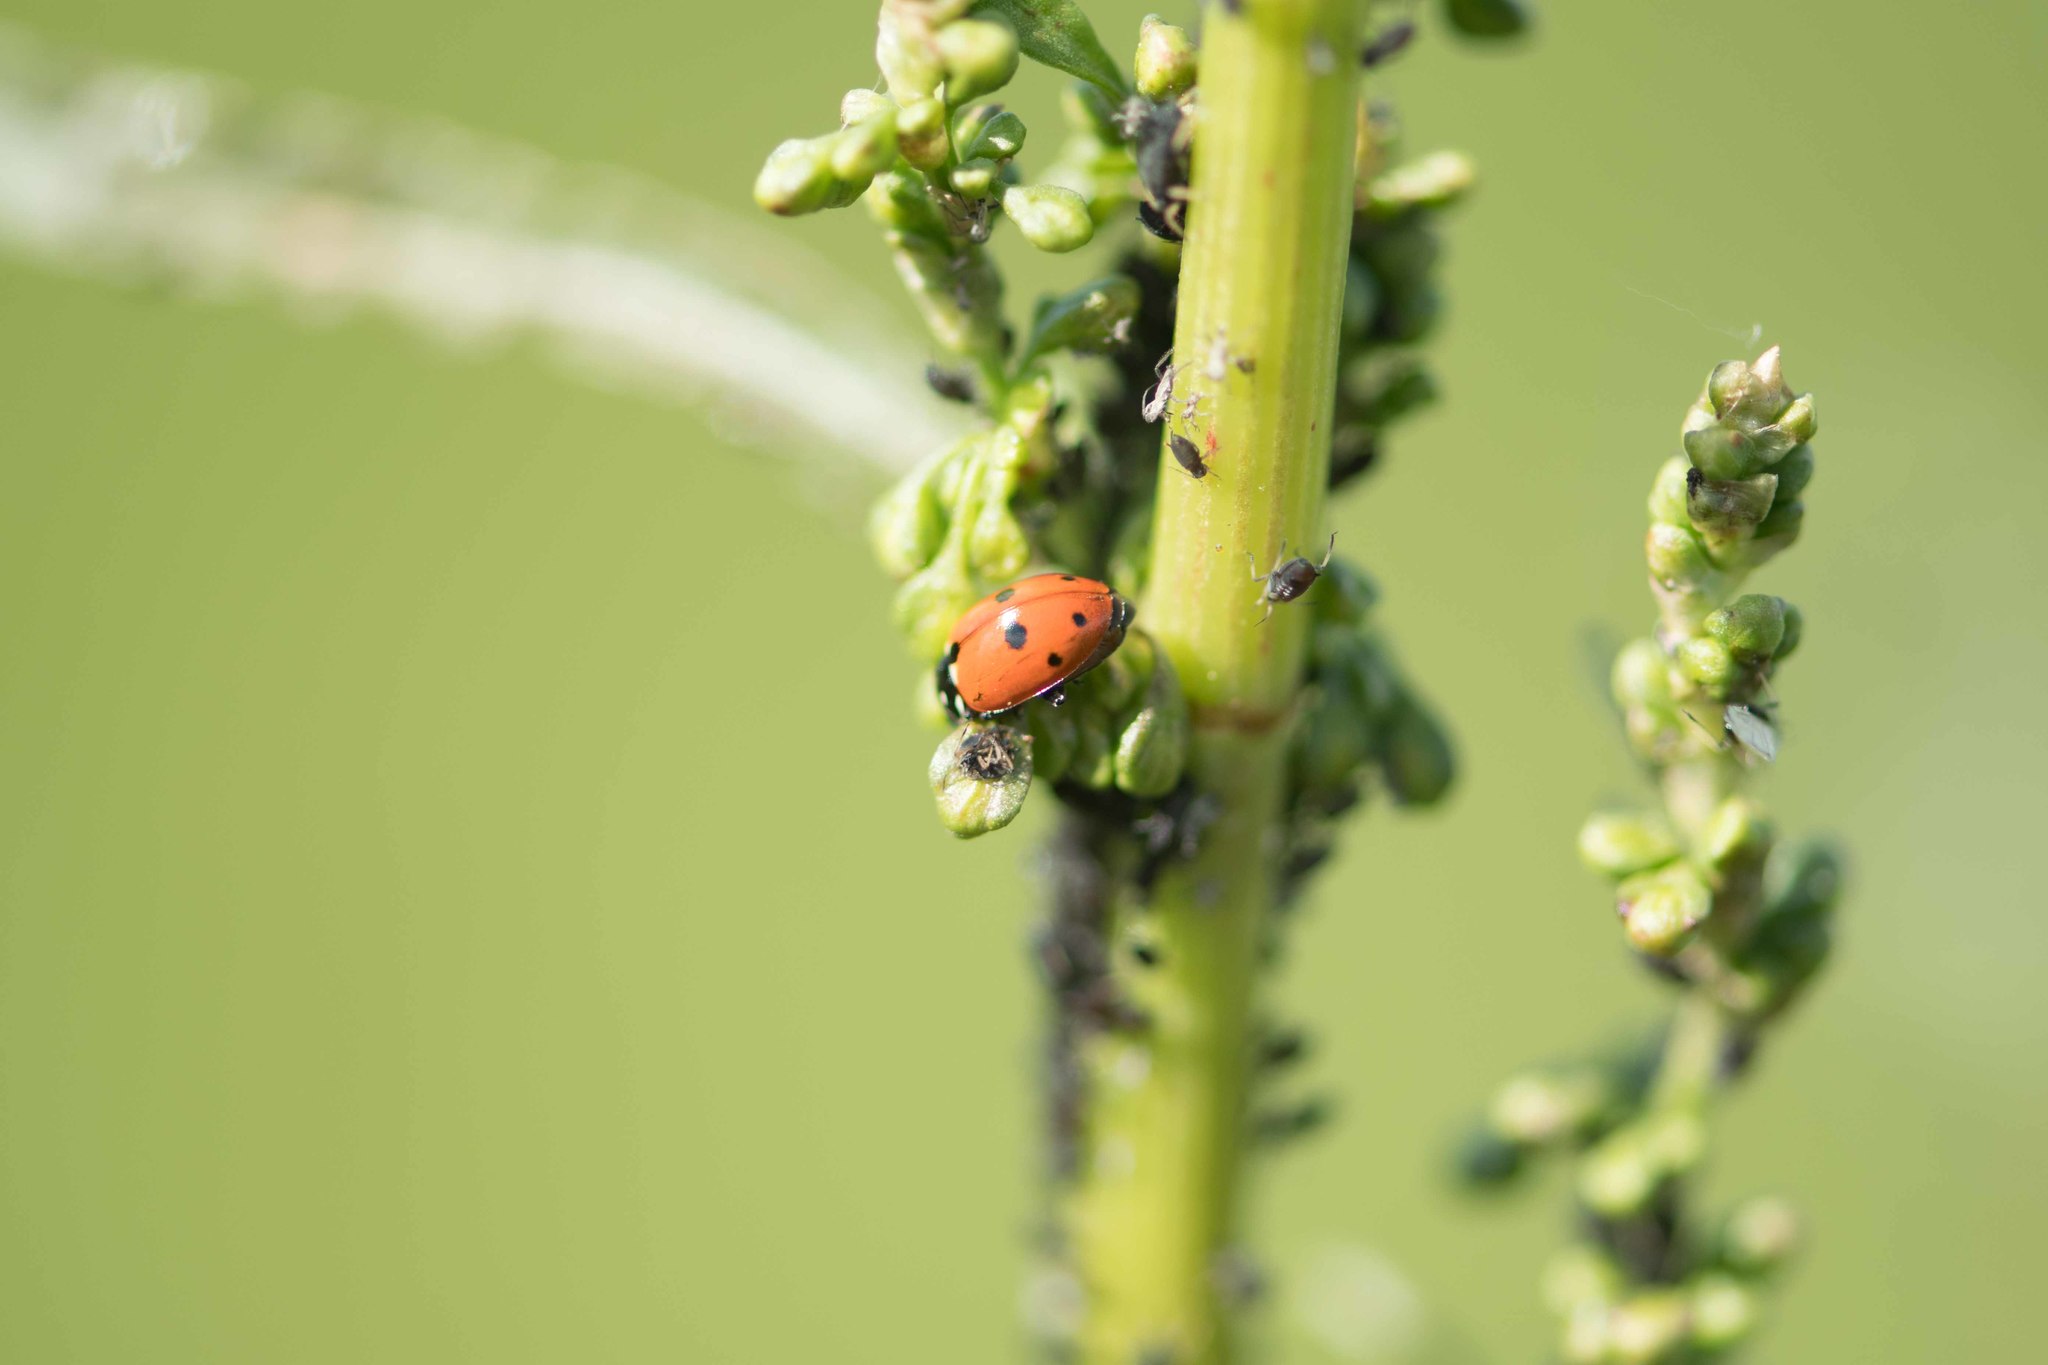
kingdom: Animalia
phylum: Arthropoda
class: Insecta
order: Coleoptera
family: Coccinellidae
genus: Hippodamia
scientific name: Hippodamia variegata
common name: Ladybird beetle
